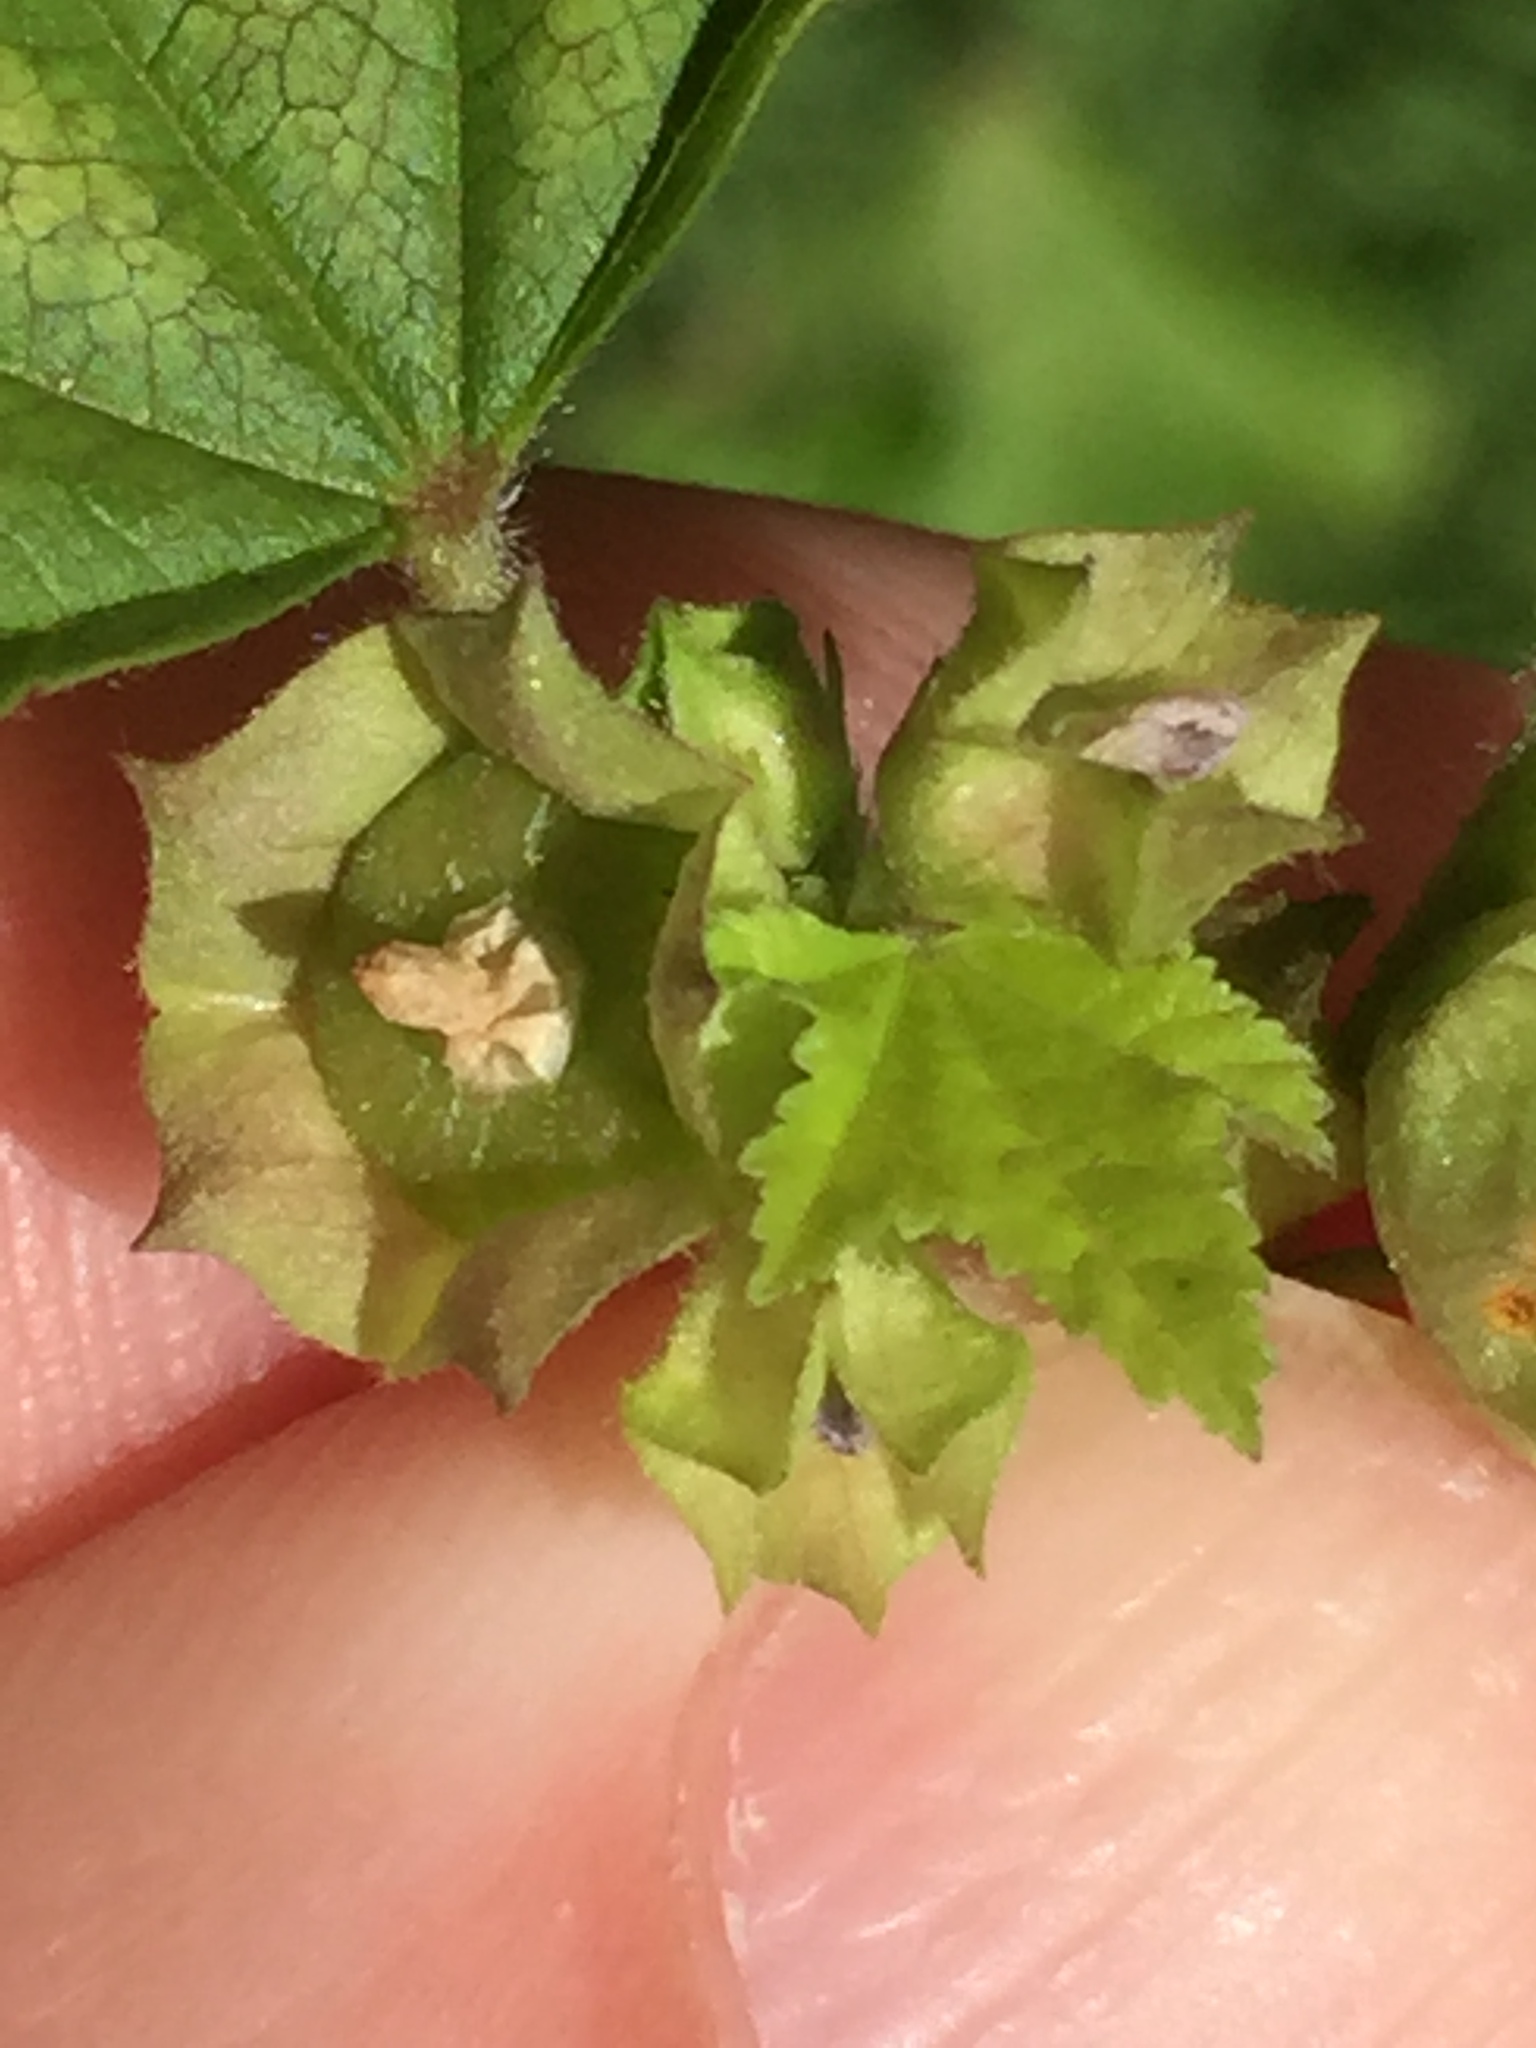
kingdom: Plantae
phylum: Tracheophyta
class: Magnoliopsida
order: Malvales
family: Malvaceae
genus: Malva
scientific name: Malva parviflora
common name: Least mallow
